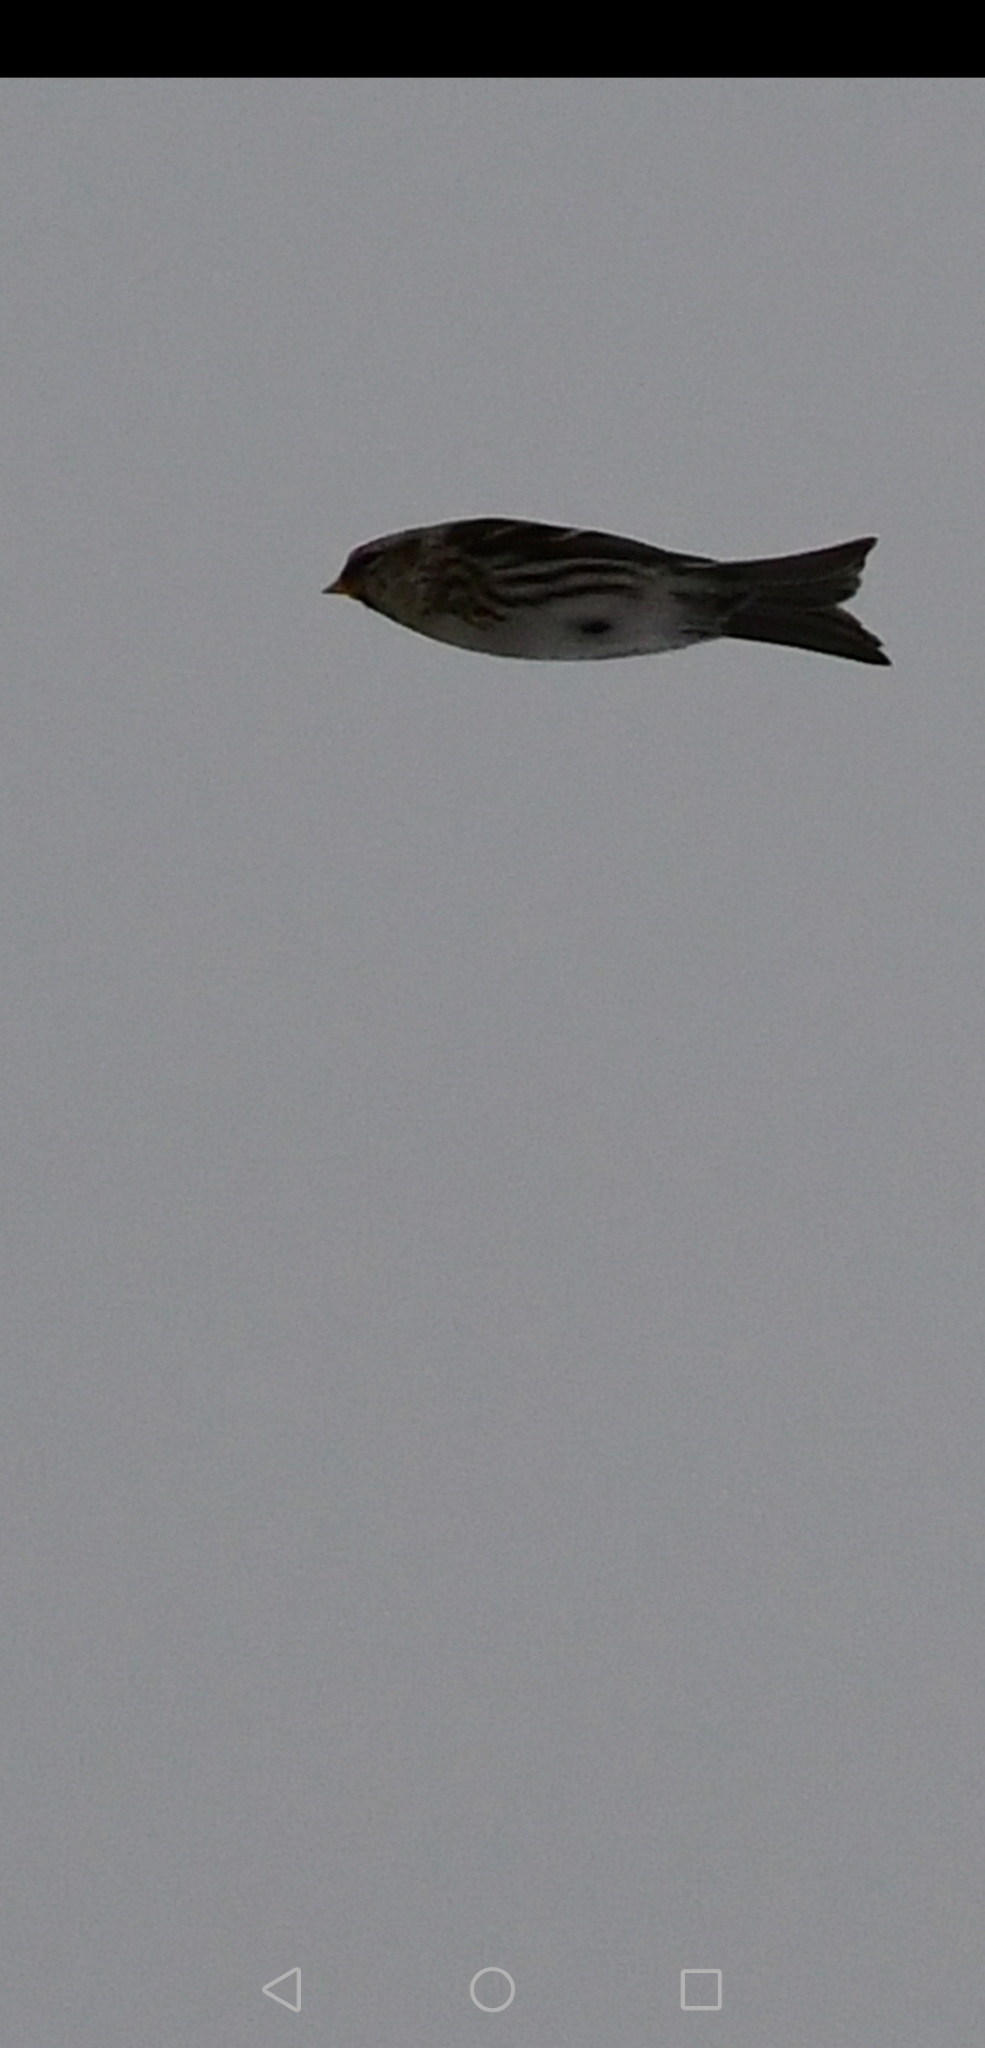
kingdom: Animalia
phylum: Chordata
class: Aves
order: Passeriformes
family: Fringillidae
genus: Acanthis
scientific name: Acanthis flammea
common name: Common redpoll
